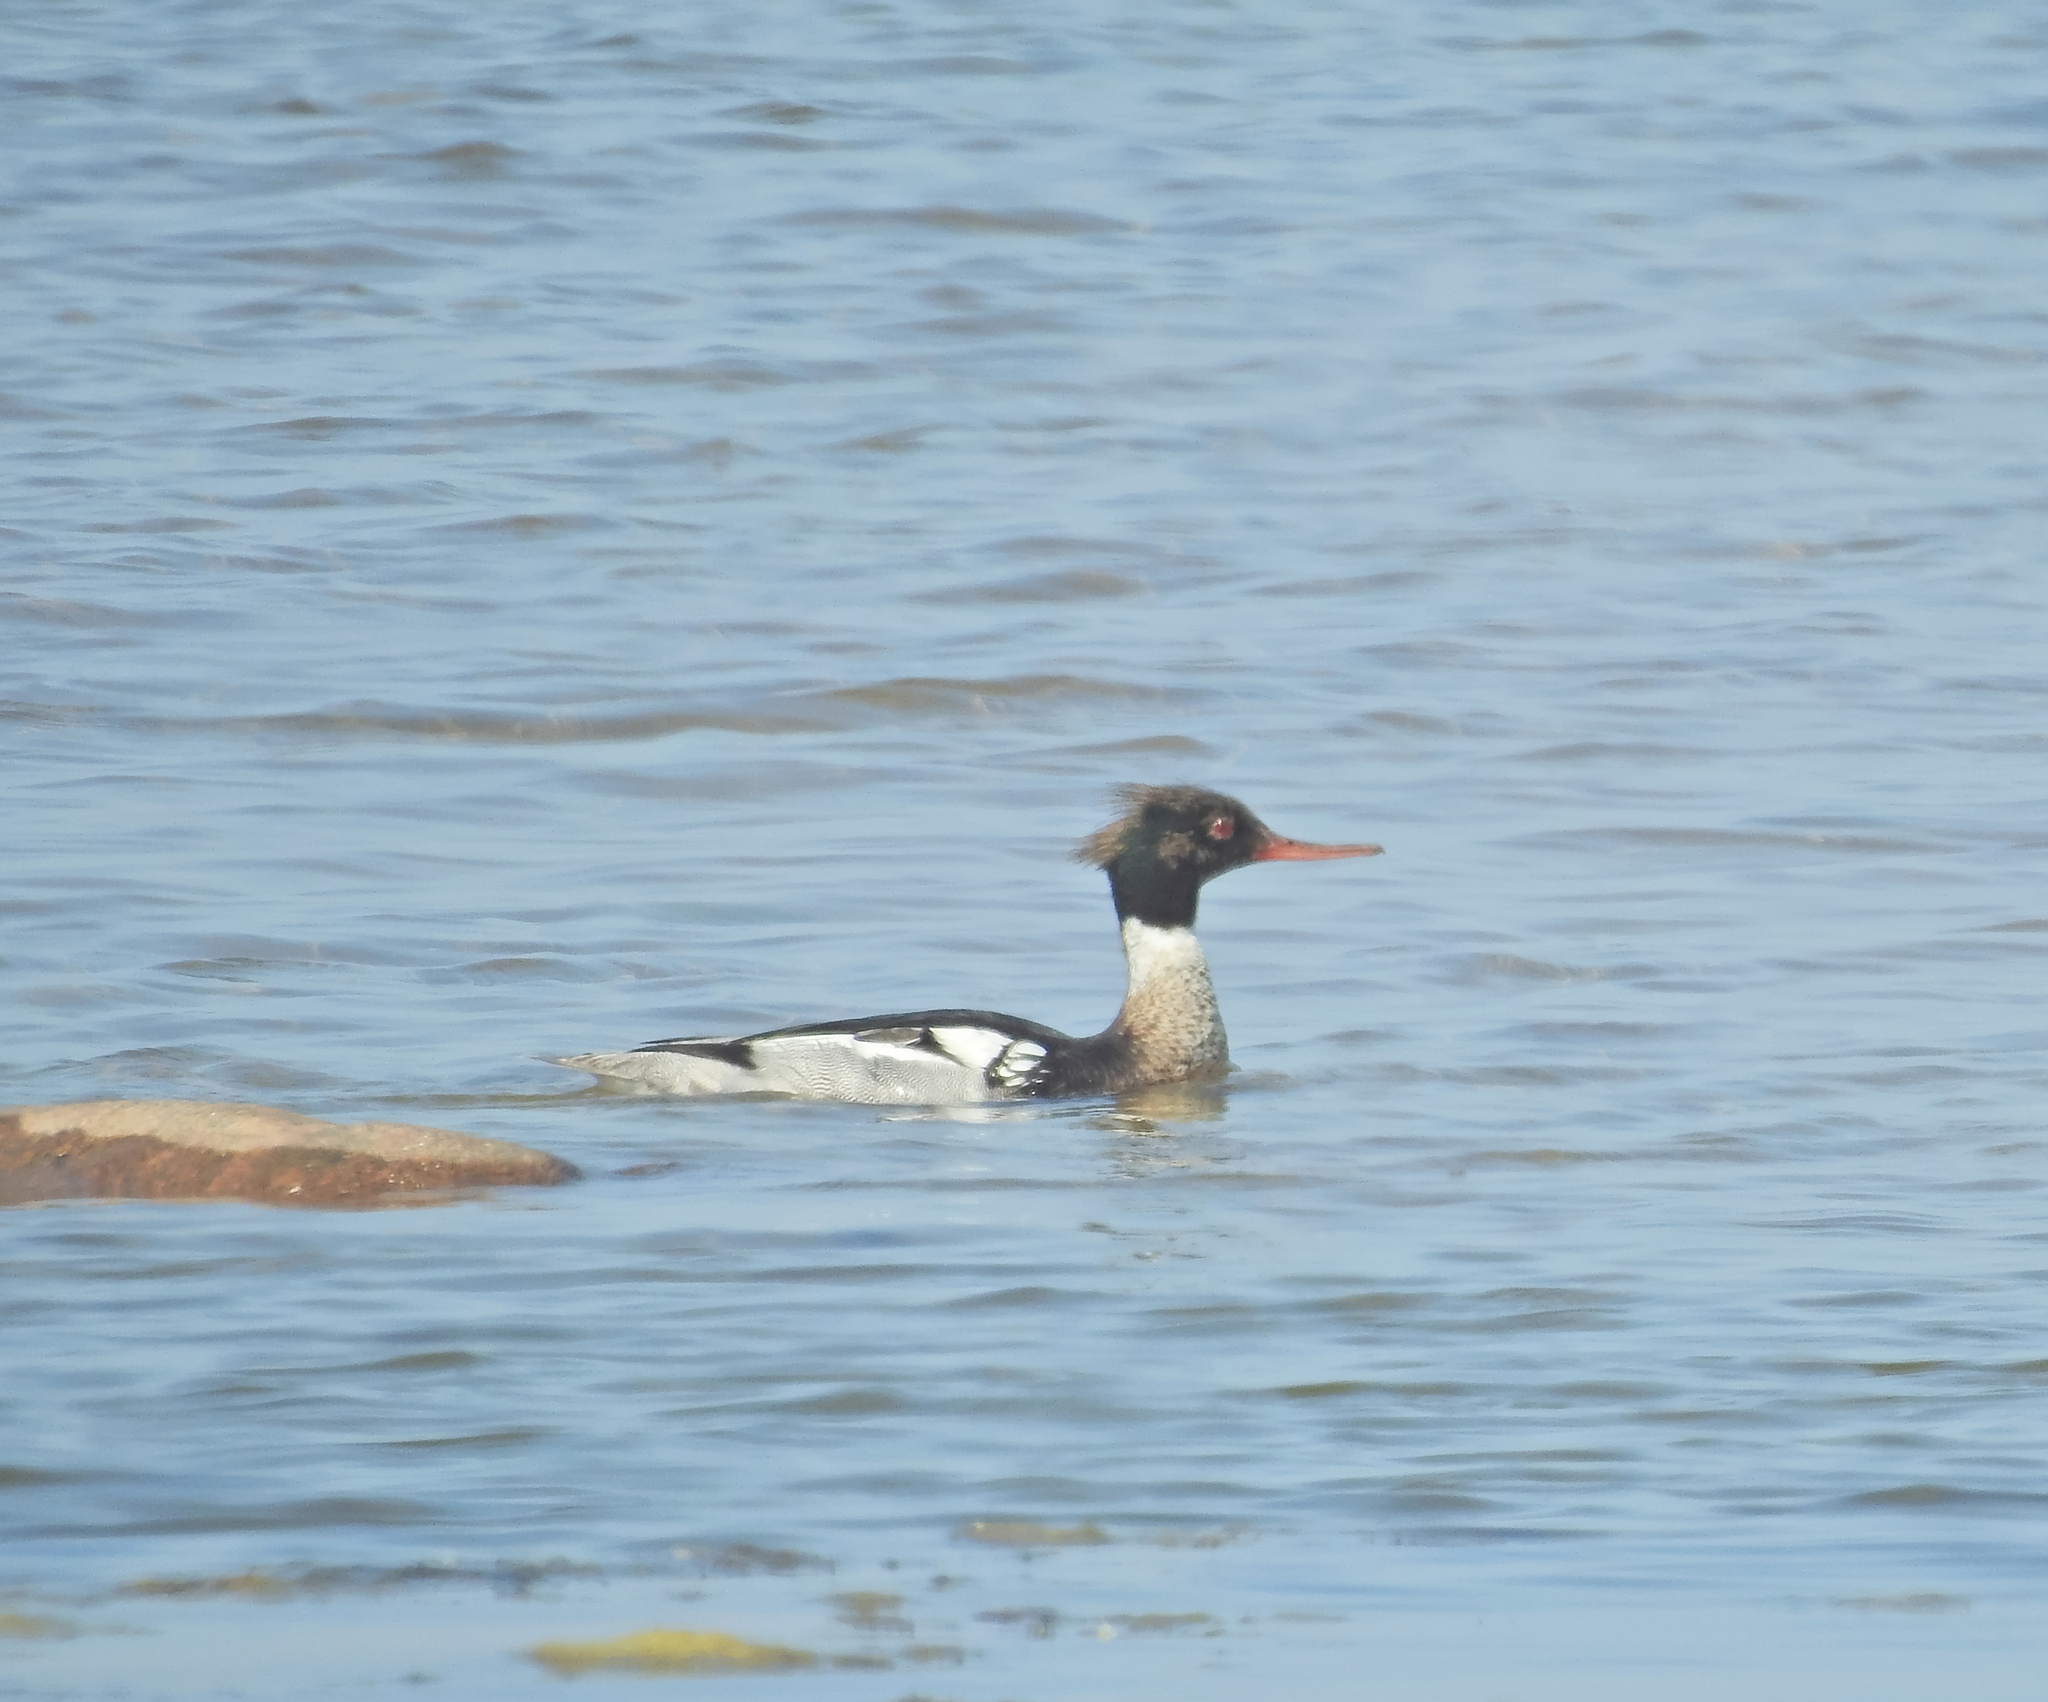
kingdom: Animalia
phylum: Chordata
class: Aves
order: Anseriformes
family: Anatidae
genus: Mergus
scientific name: Mergus serrator
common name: Red-breasted merganser
